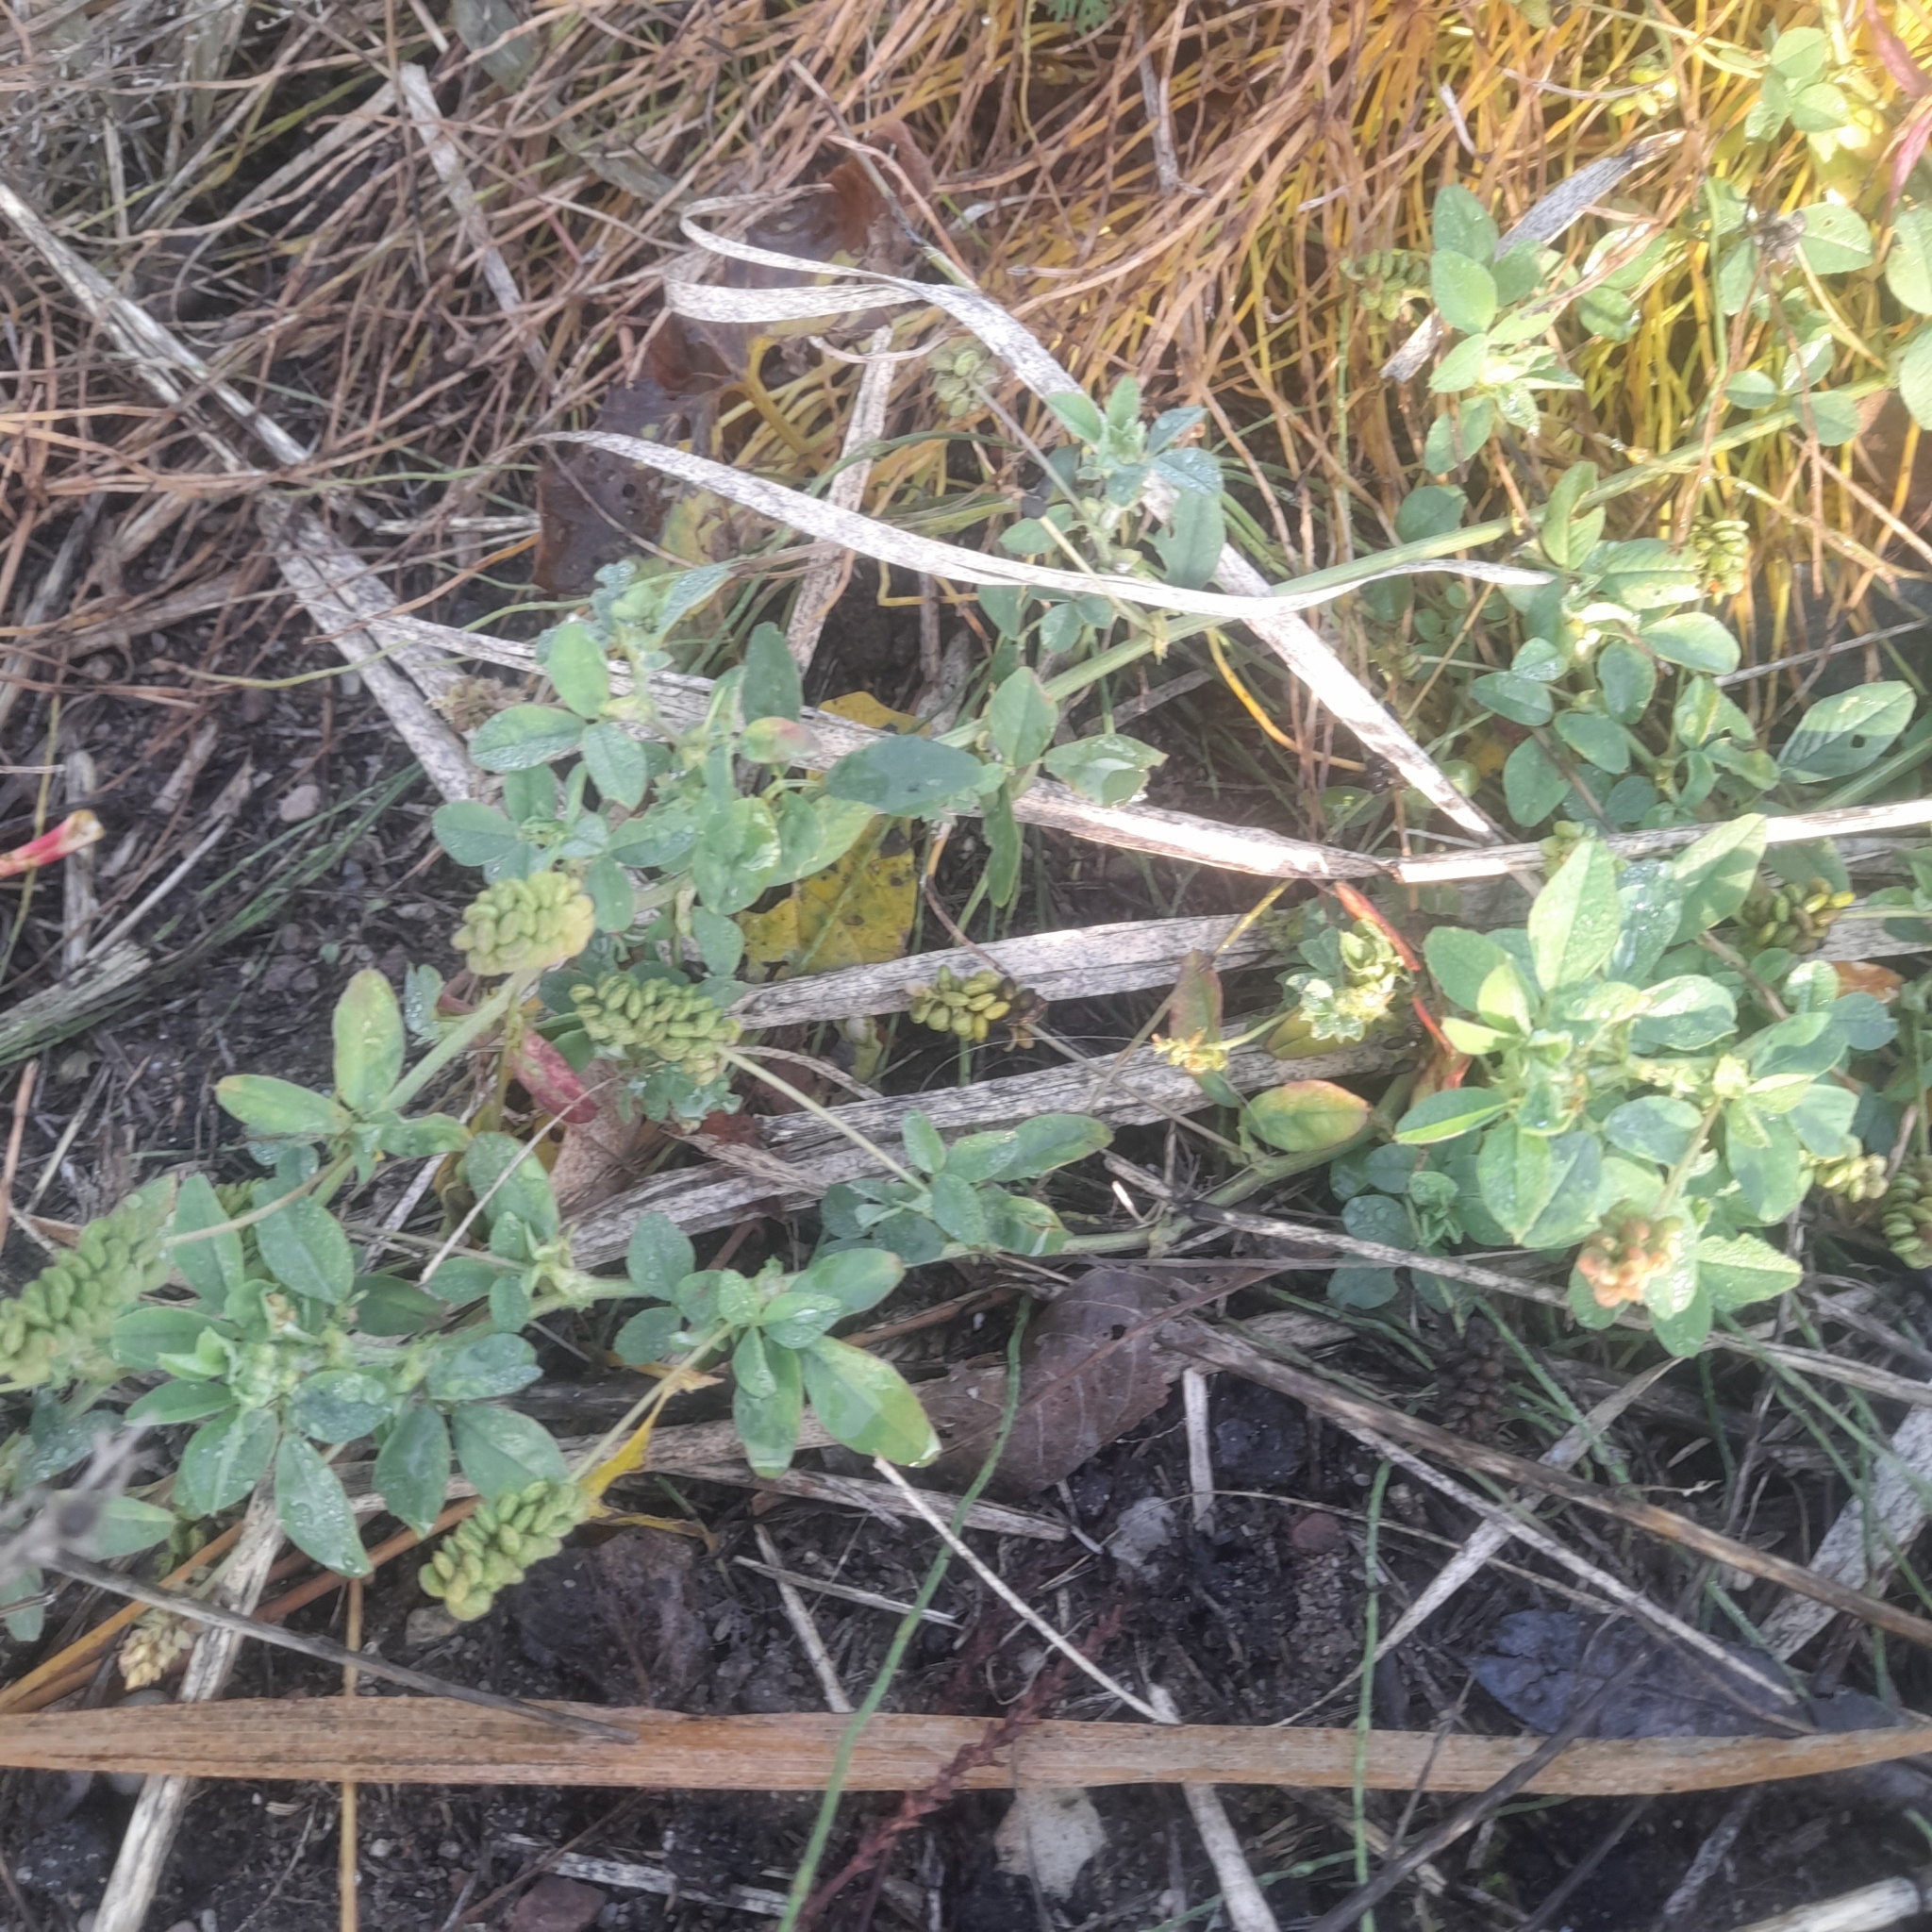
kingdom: Plantae
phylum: Tracheophyta
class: Magnoliopsida
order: Fabales
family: Fabaceae
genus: Medicago
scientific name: Medicago lupulina
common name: Black medick
